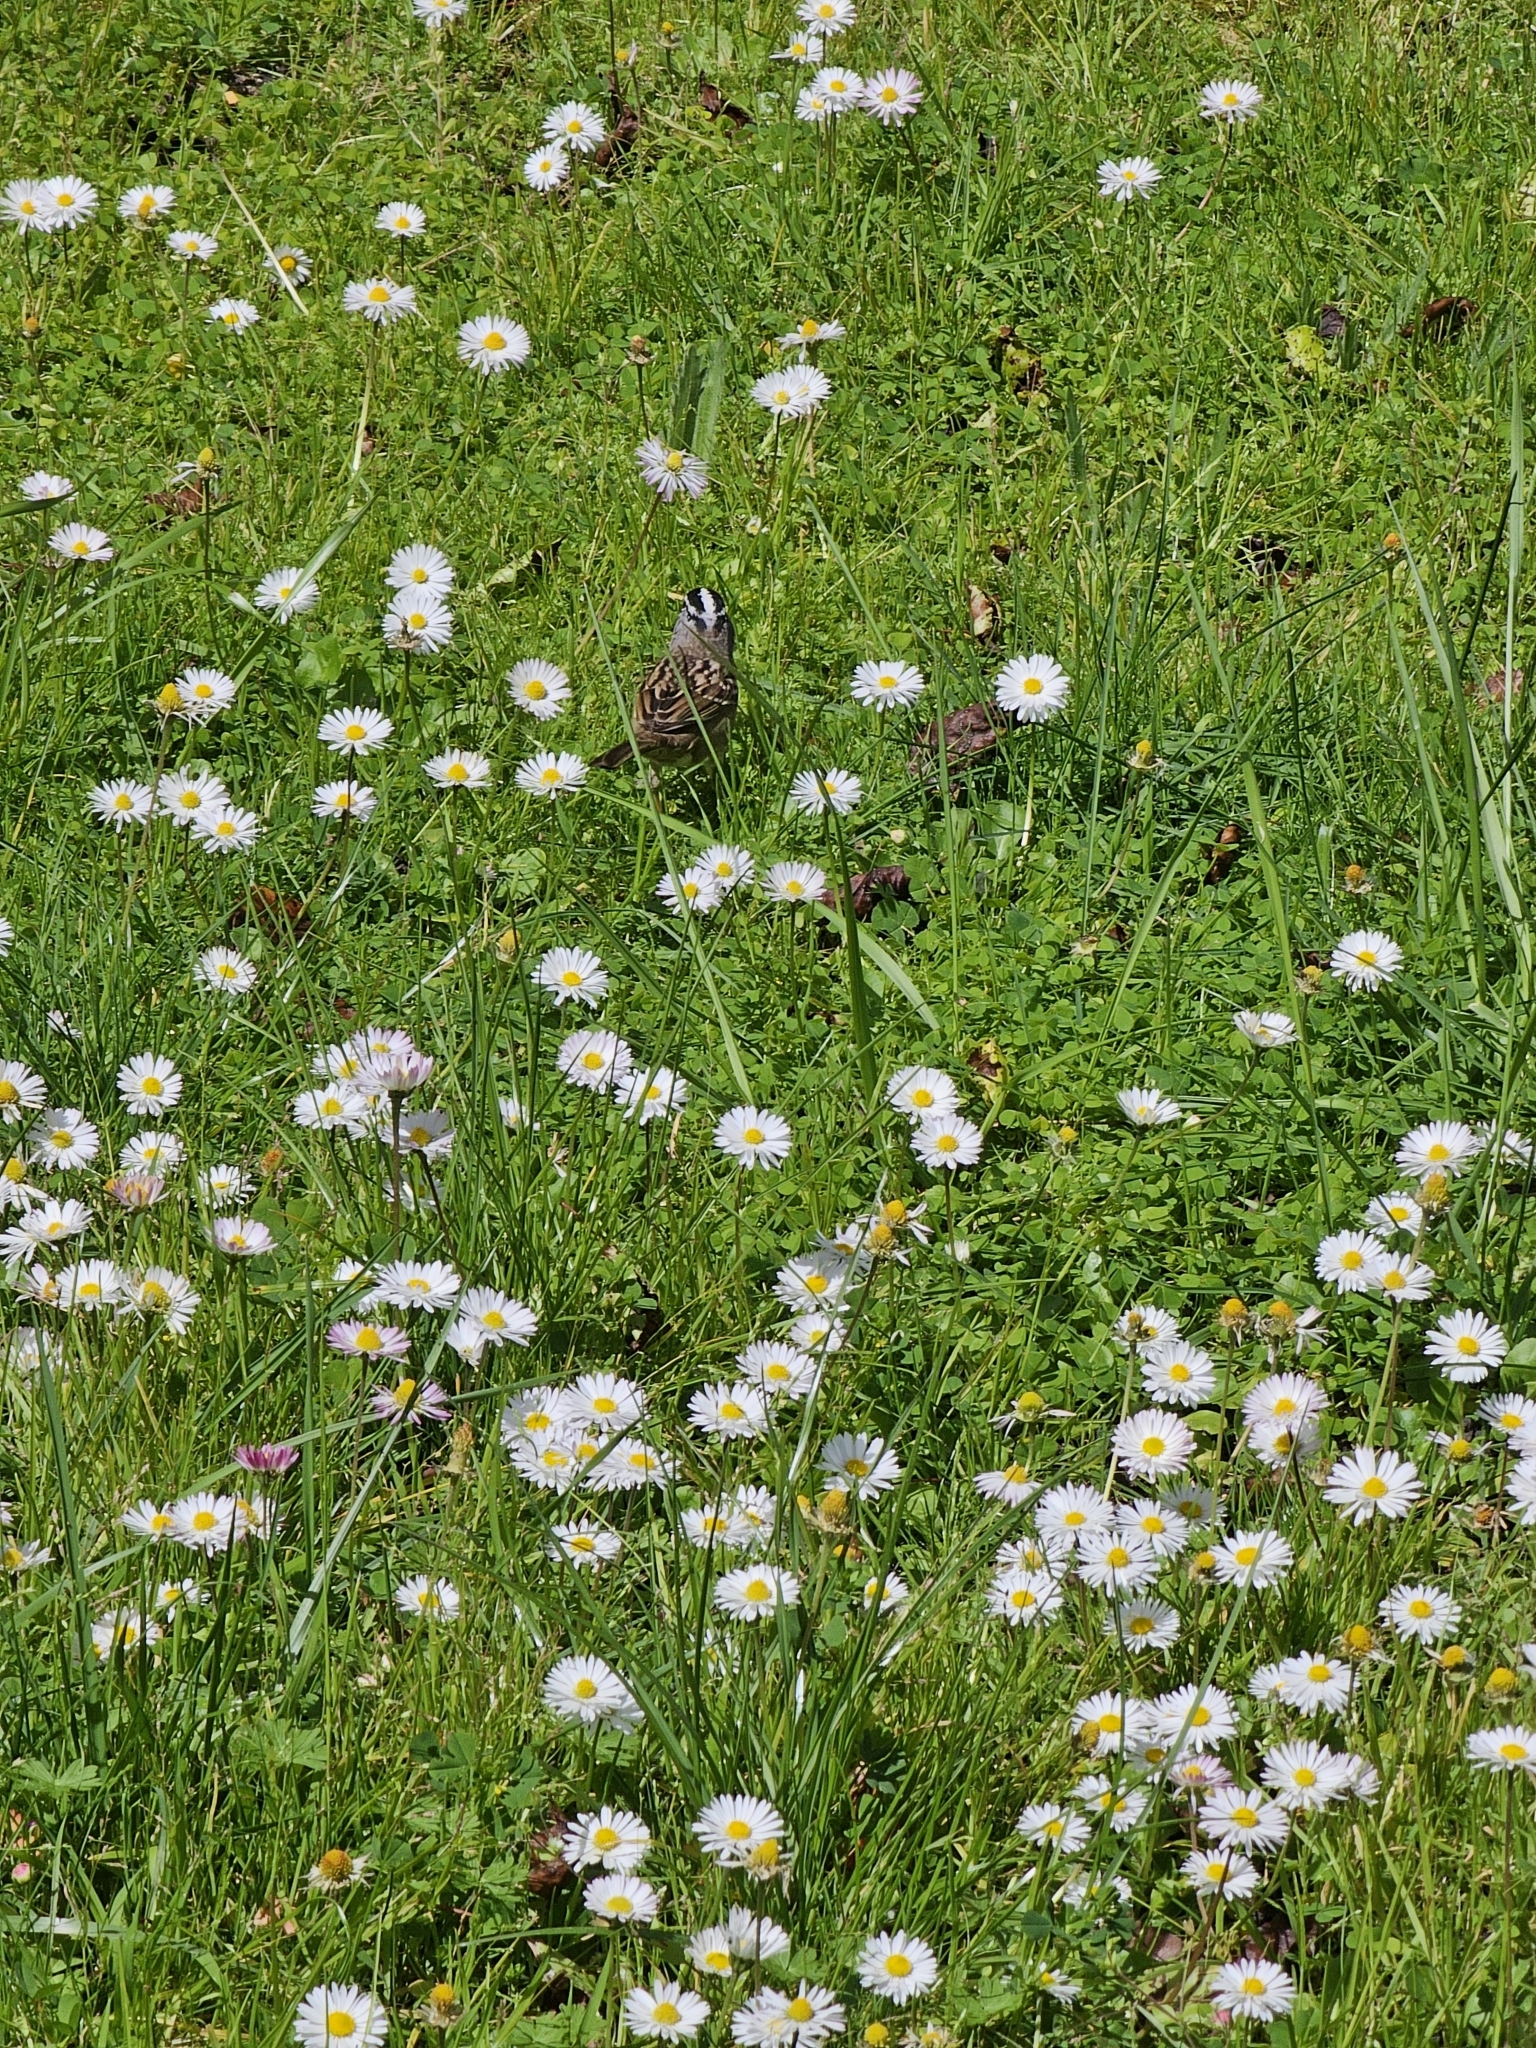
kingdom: Animalia
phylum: Chordata
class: Aves
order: Passeriformes
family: Passerellidae
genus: Zonotrichia
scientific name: Zonotrichia leucophrys
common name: White-crowned sparrow
